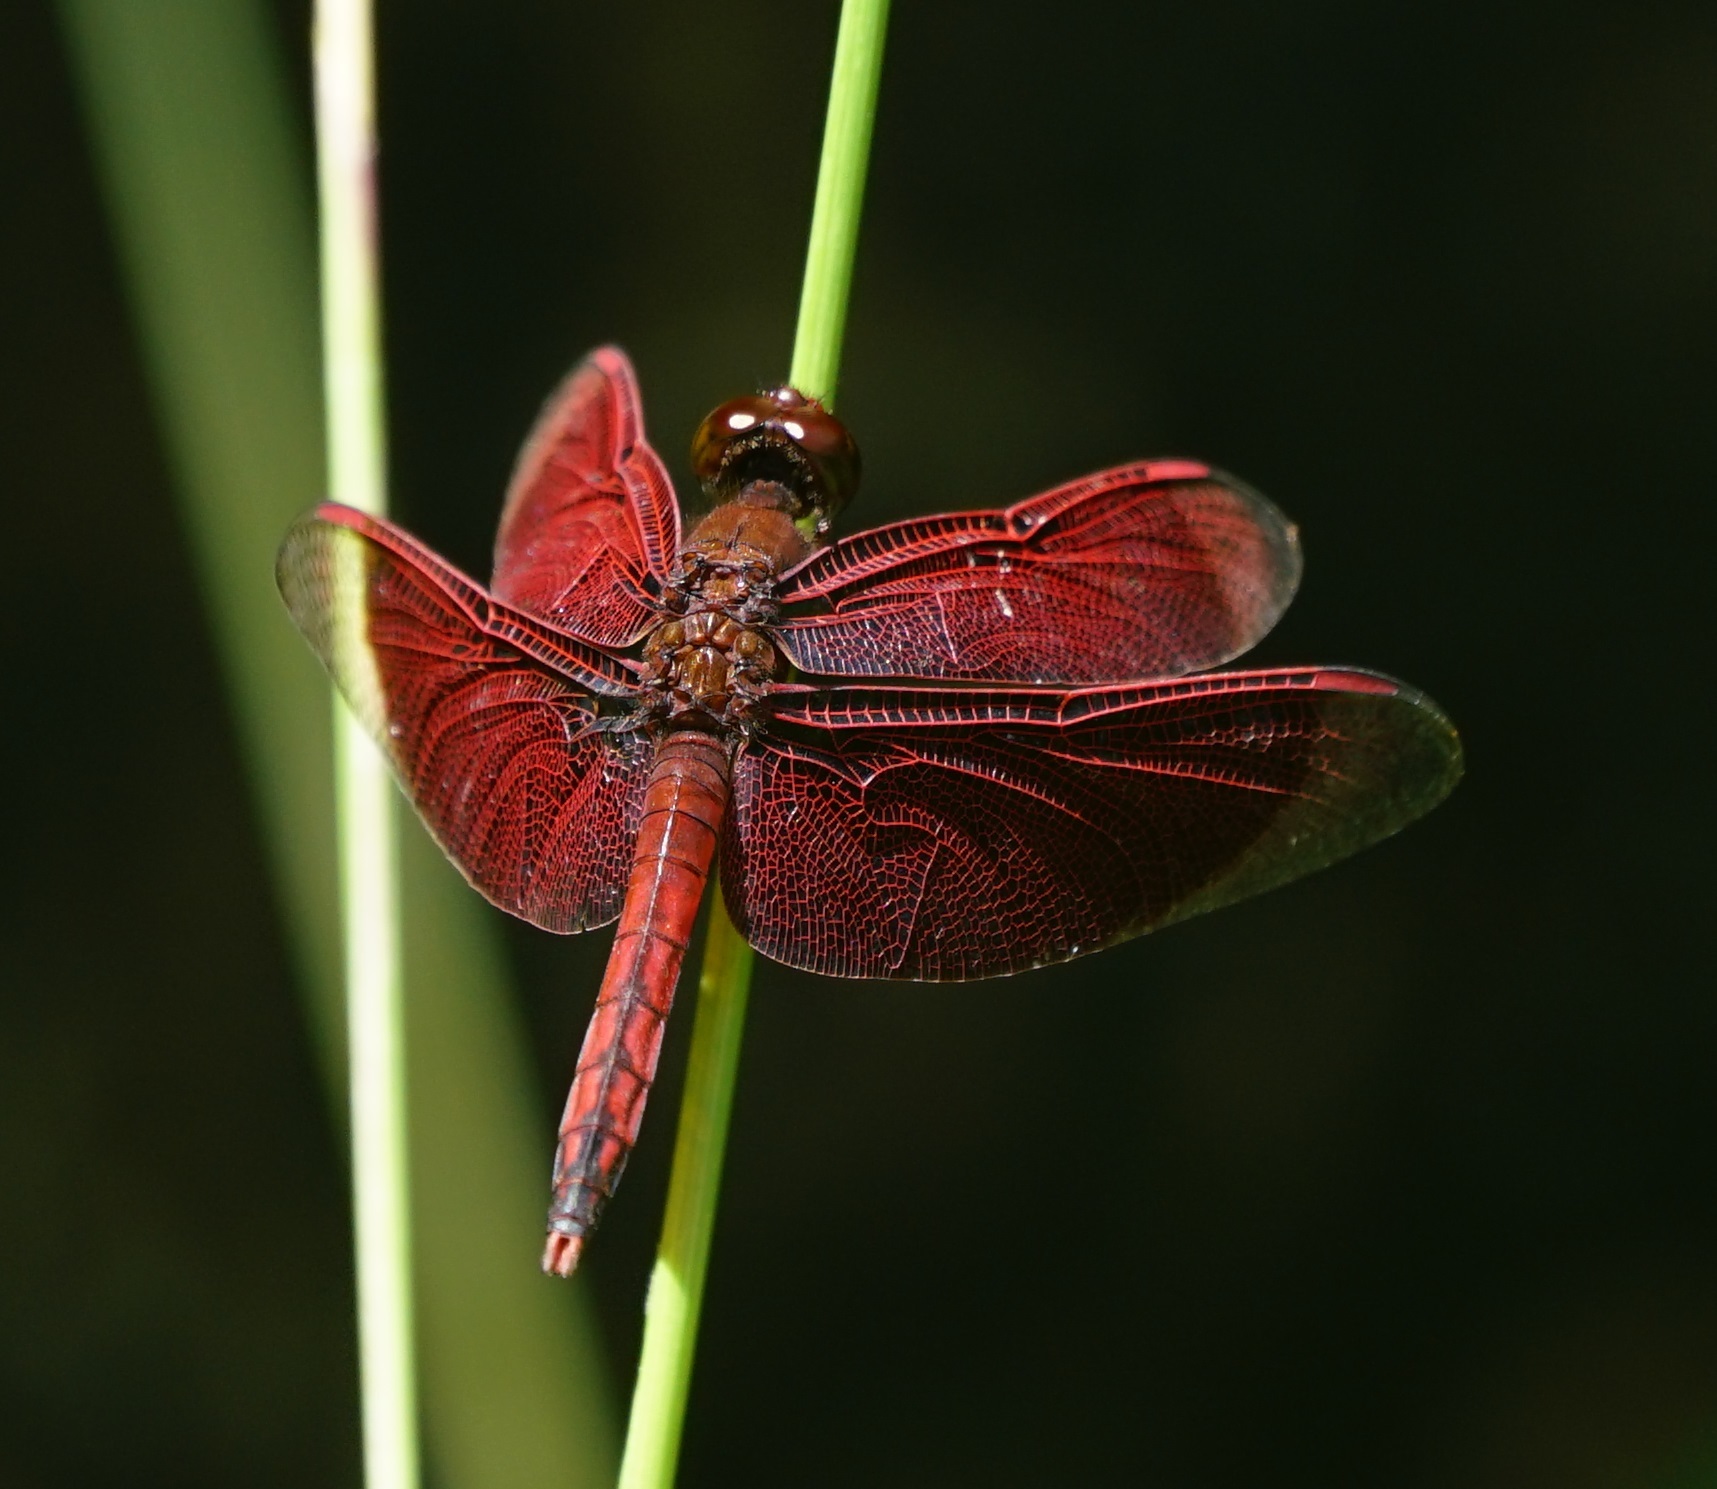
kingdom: Animalia
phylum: Arthropoda
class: Insecta
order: Odonata
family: Libellulidae
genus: Neurothemis
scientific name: Neurothemis ramburii
